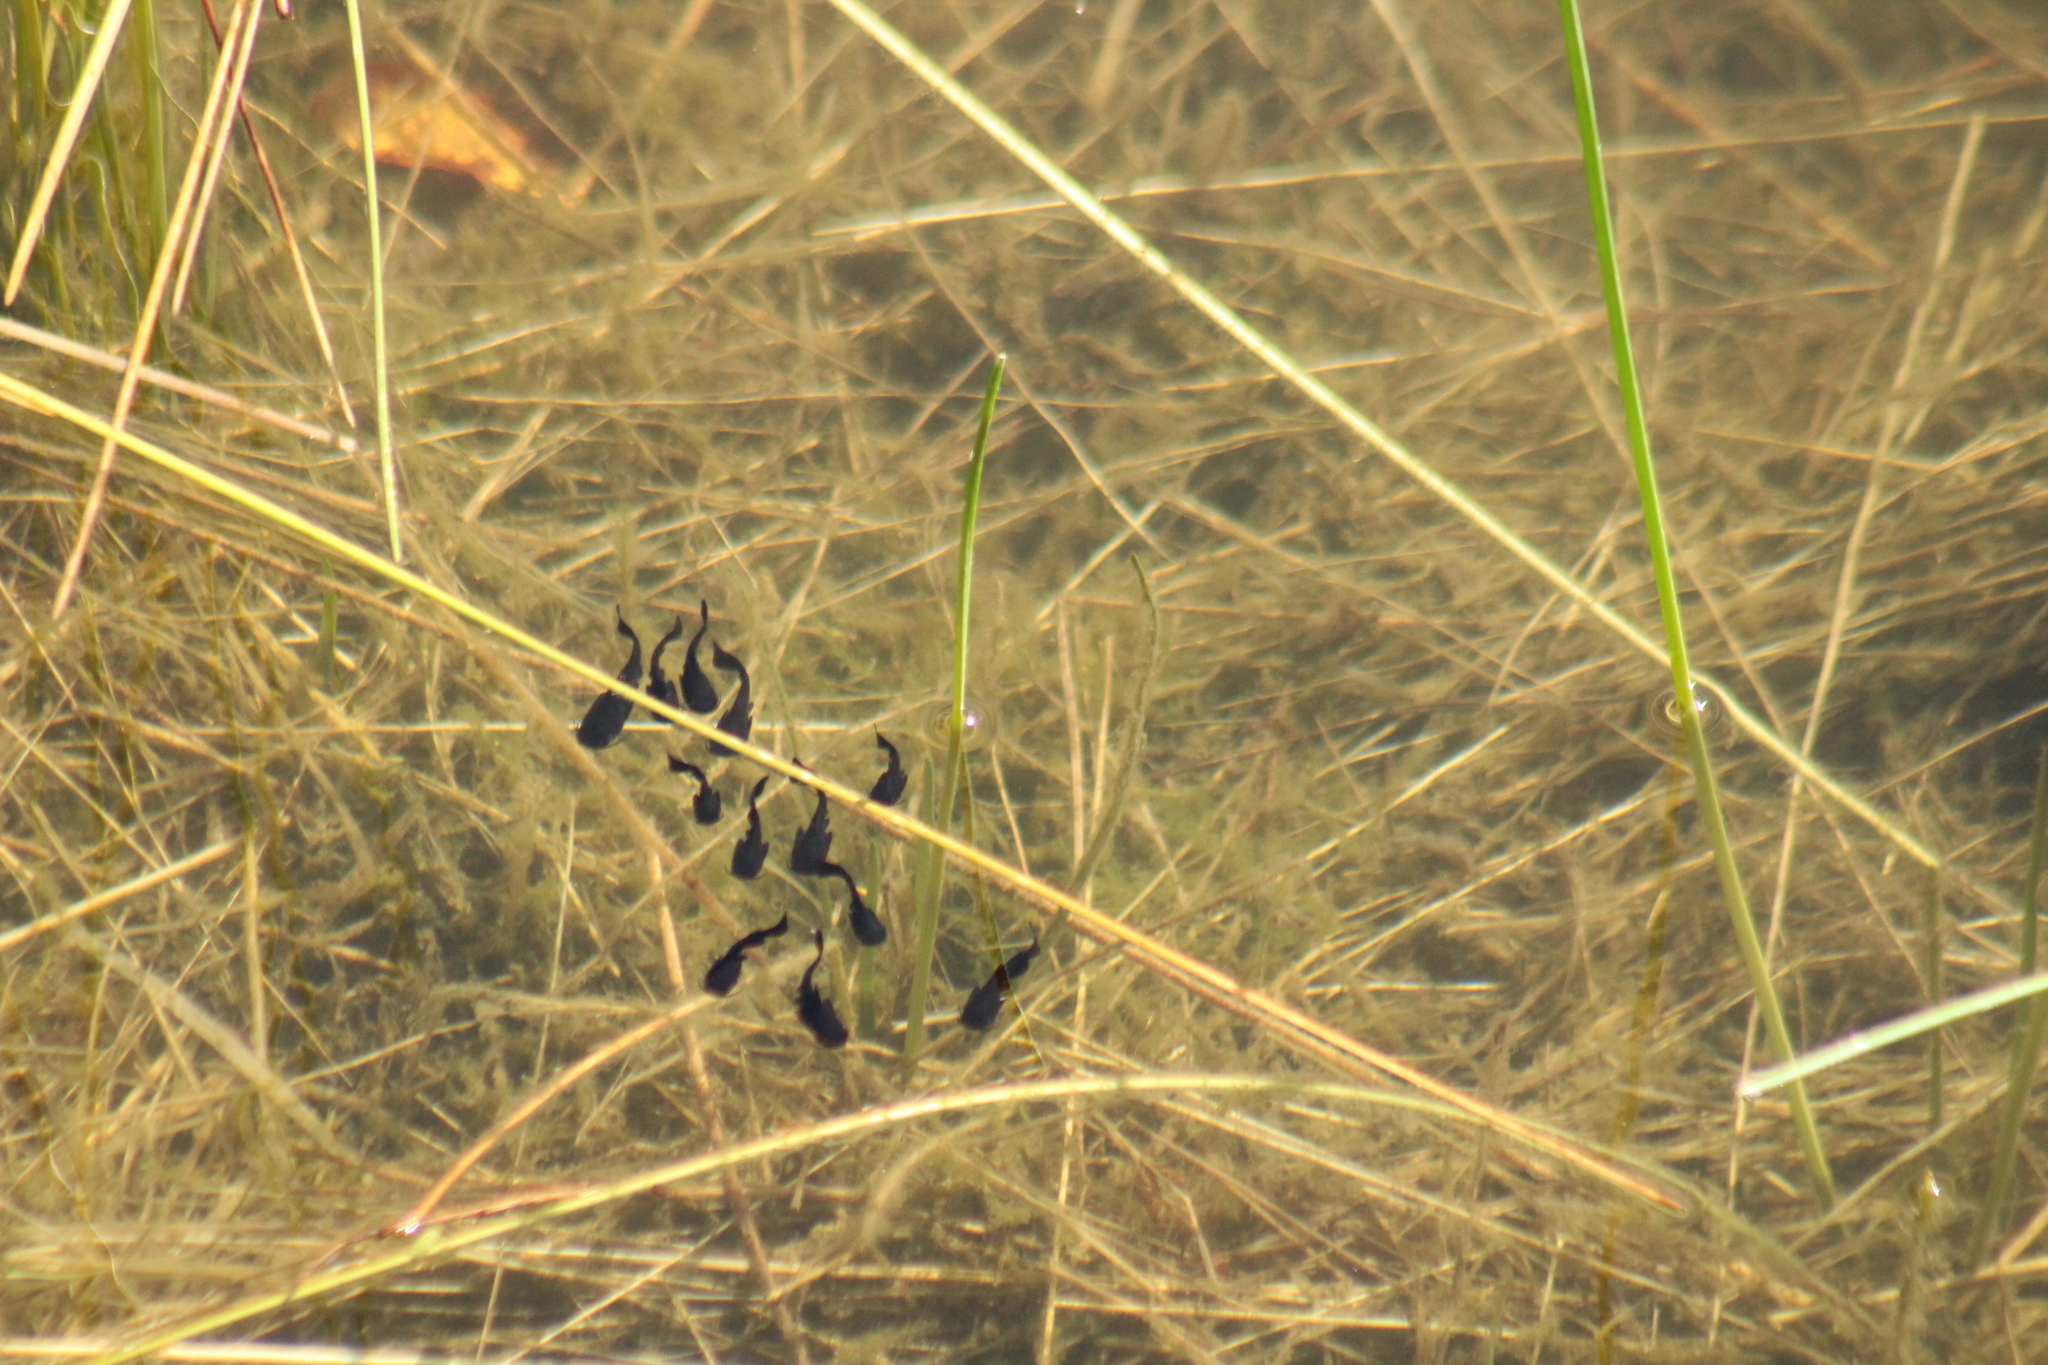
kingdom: Animalia
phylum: Chordata
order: Siluriformes
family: Ictaluridae
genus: Ameiurus
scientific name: Ameiurus melas
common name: Black bullhead
